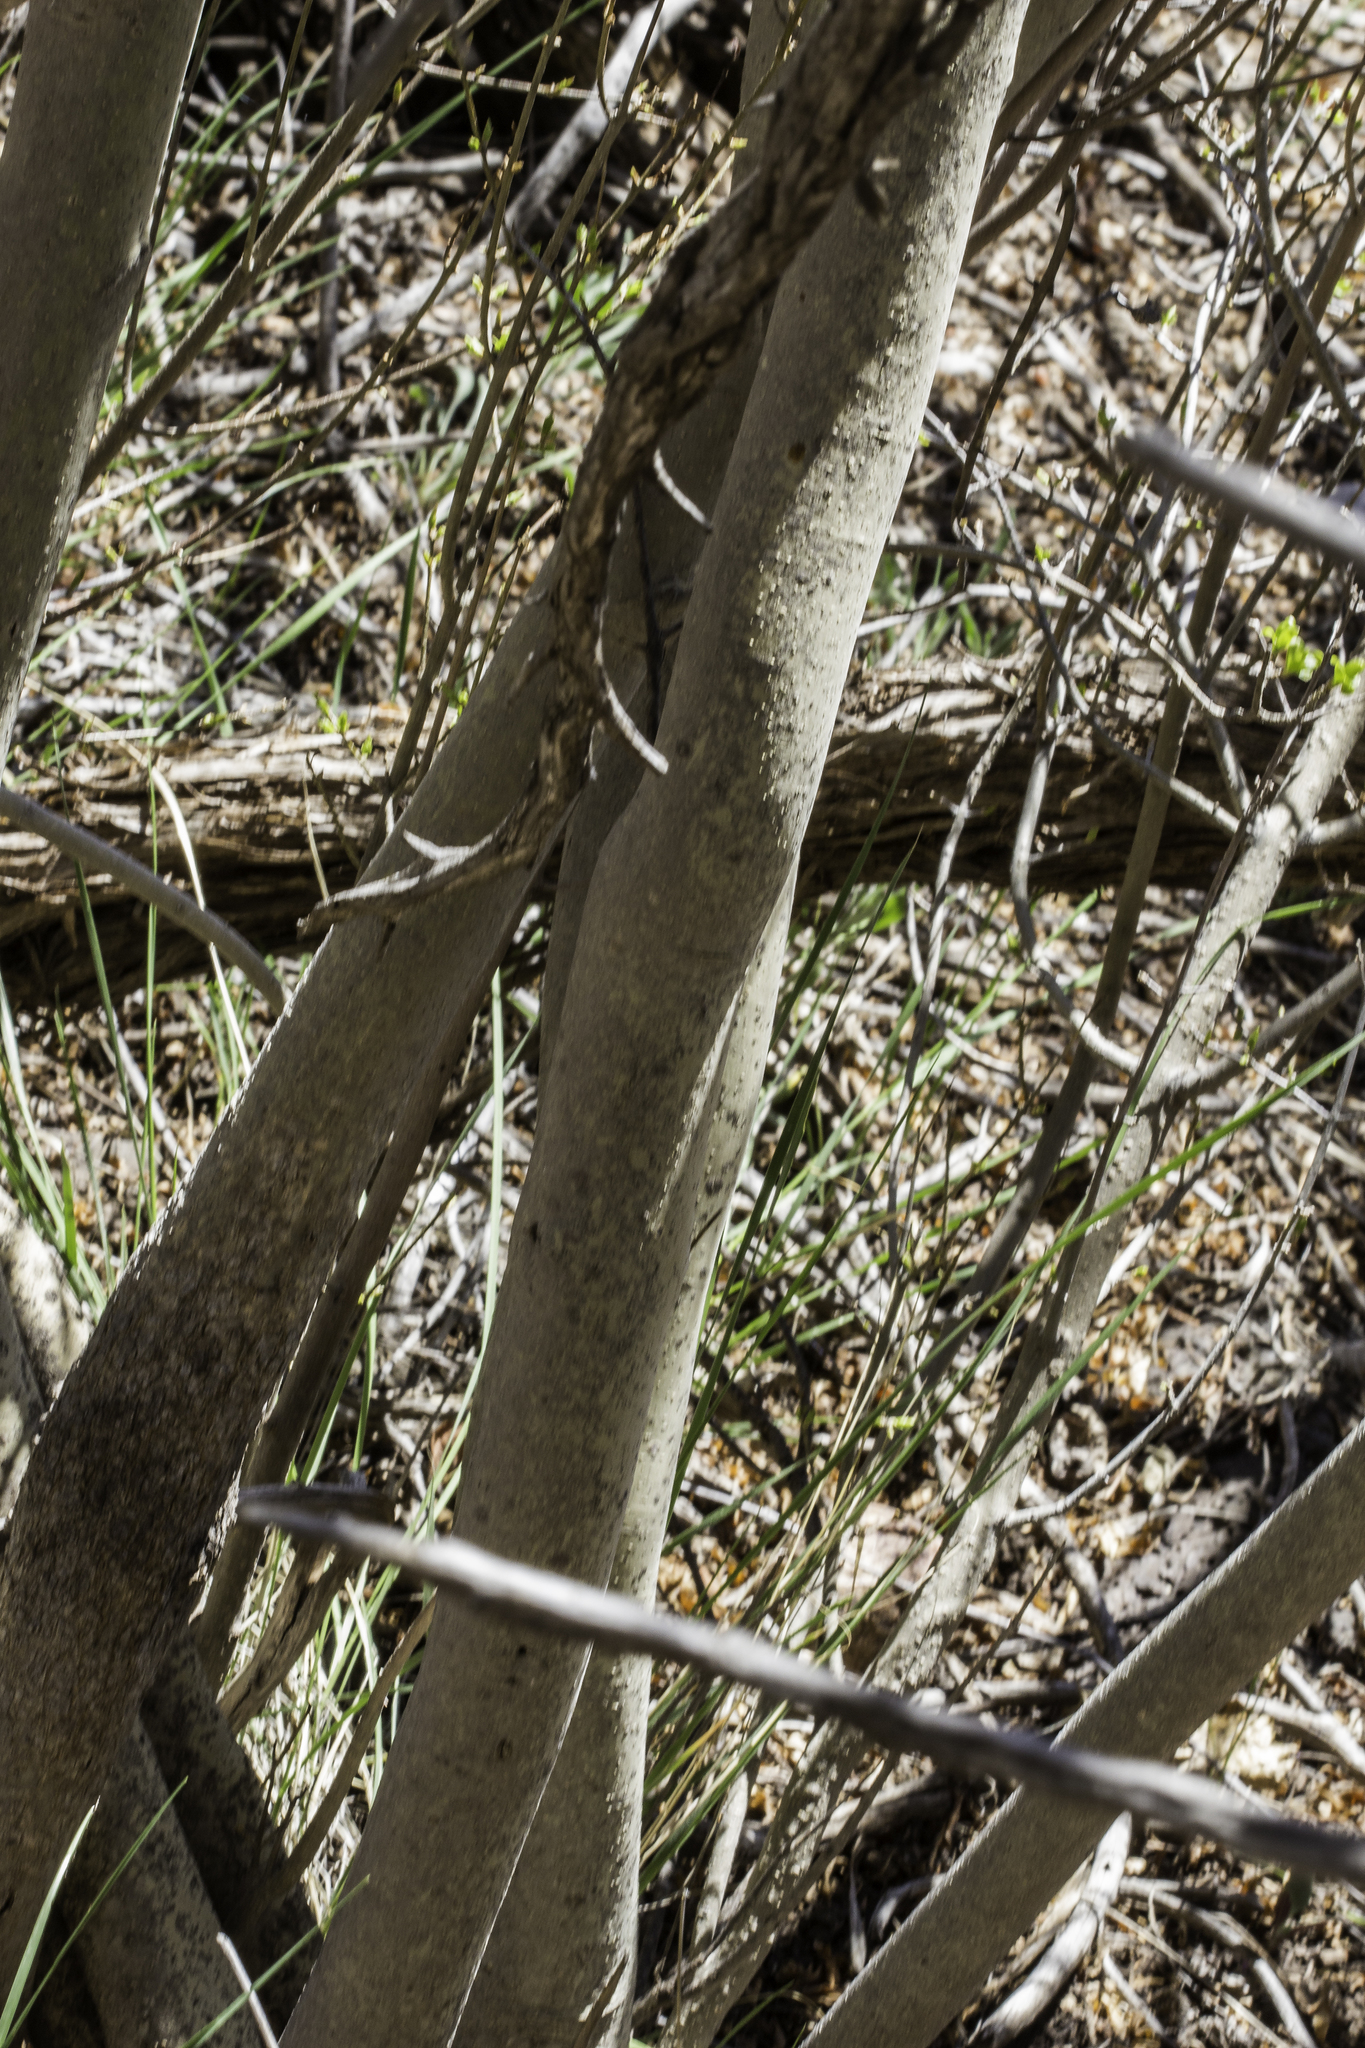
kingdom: Plantae
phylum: Tracheophyta
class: Magnoliopsida
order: Lamiales
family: Oleaceae
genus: Forestiera
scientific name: Forestiera pubescens
